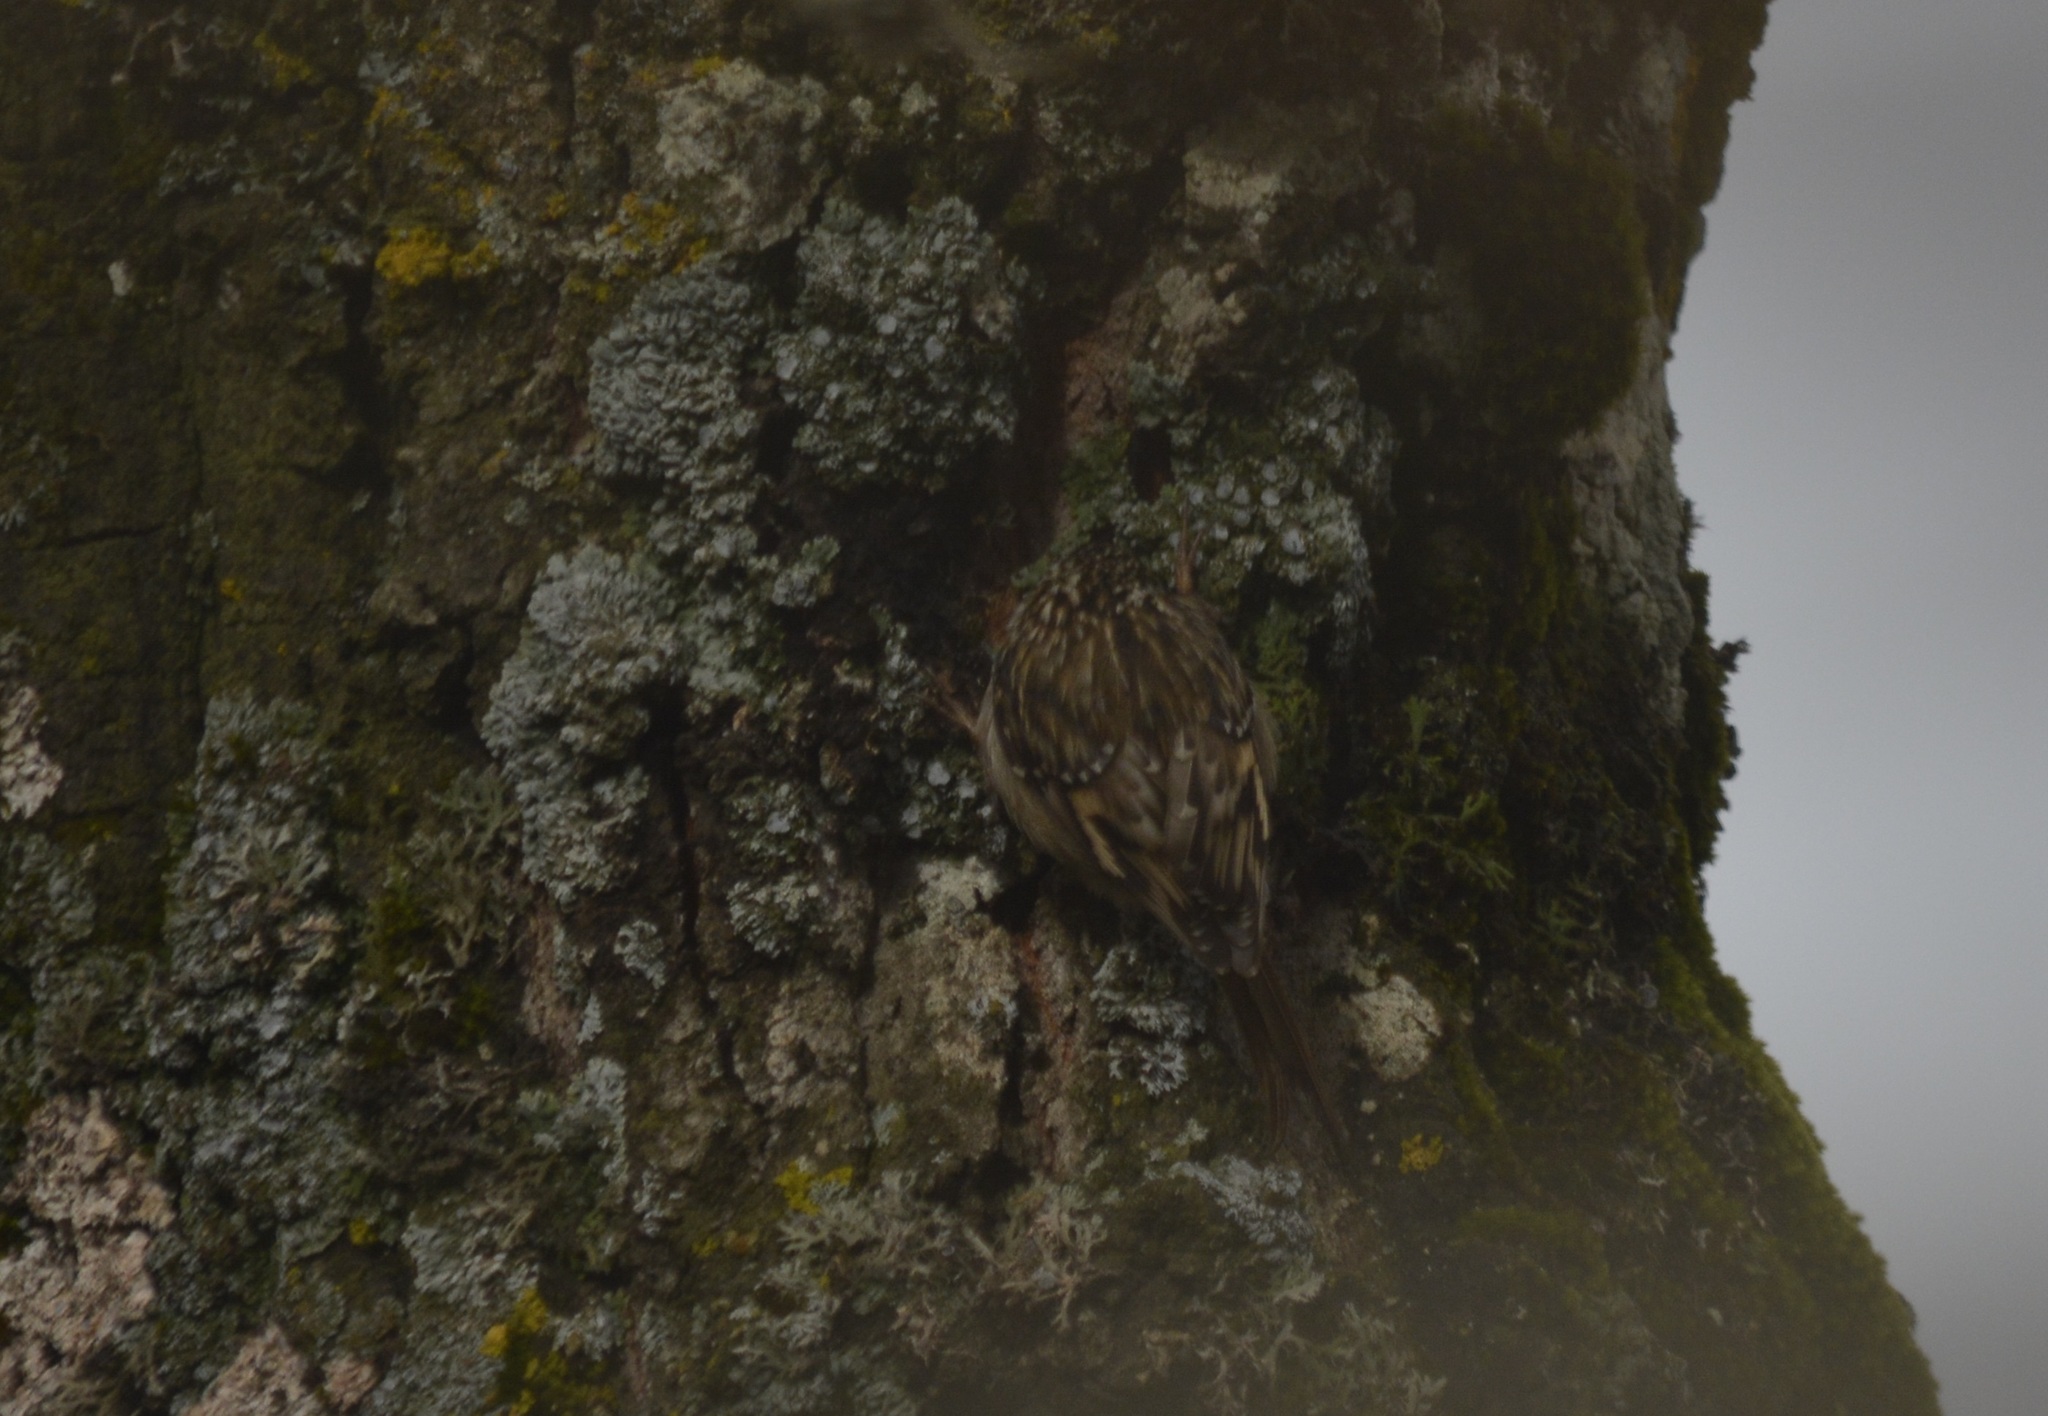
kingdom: Animalia
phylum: Chordata
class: Aves
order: Passeriformes
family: Certhiidae
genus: Certhia
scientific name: Certhia brachydactyla
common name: Short-toed treecreeper
